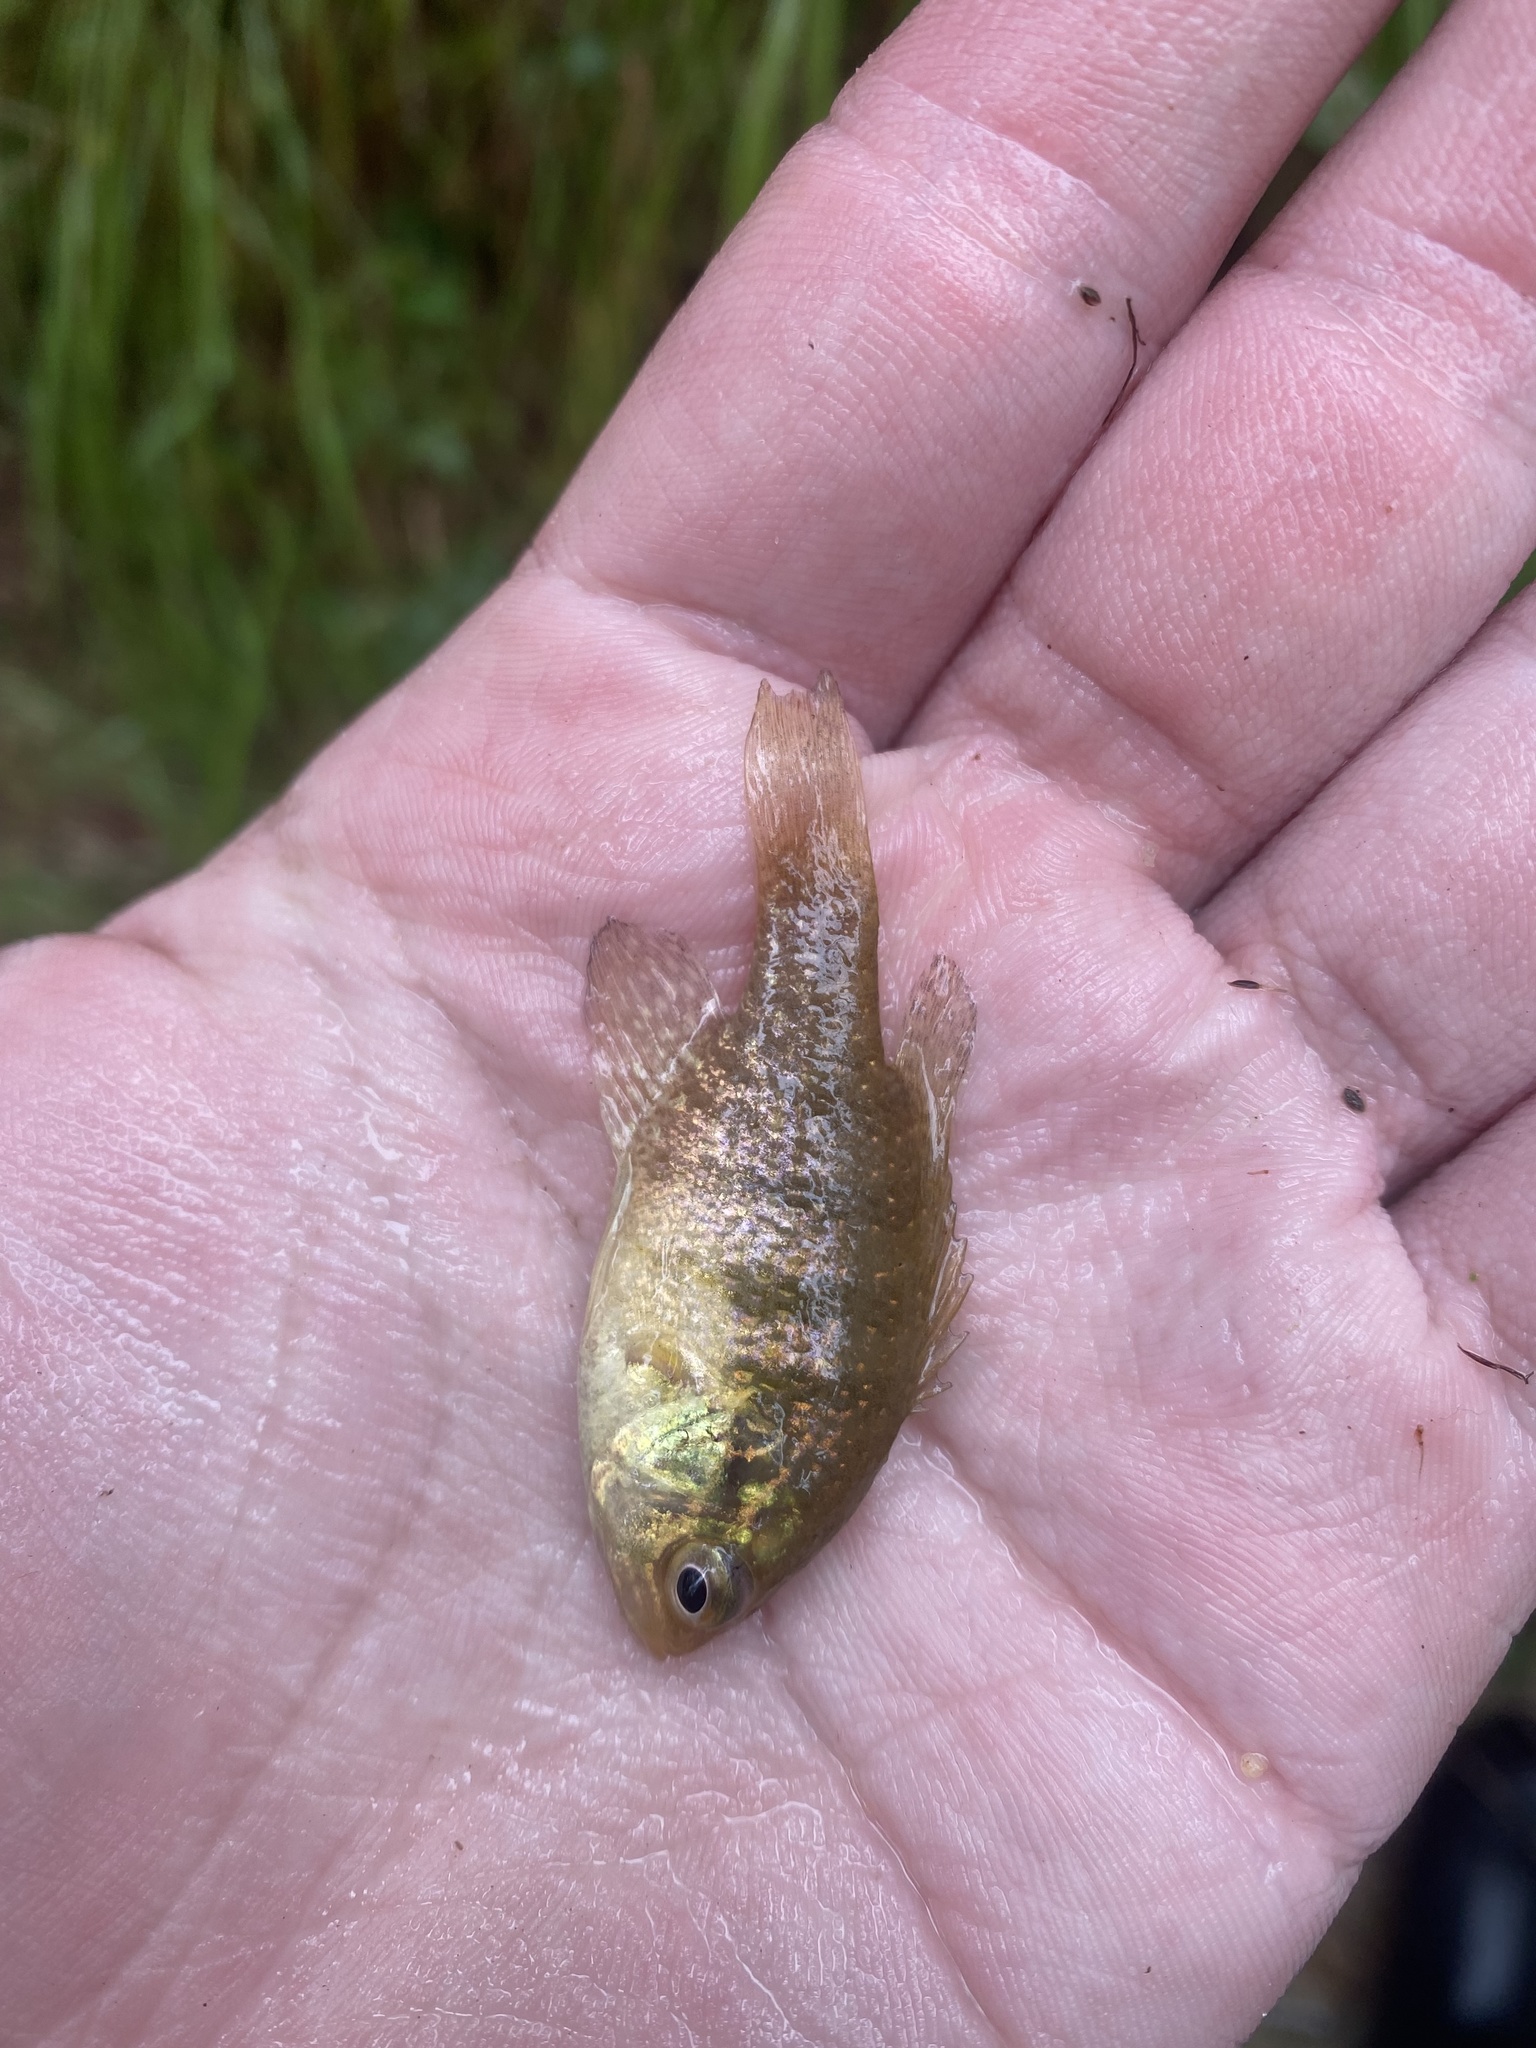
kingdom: Animalia
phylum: Chordata
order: Perciformes
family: Centrarchidae
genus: Enneacanthus
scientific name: Enneacanthus obesus
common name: Banded sunfish
